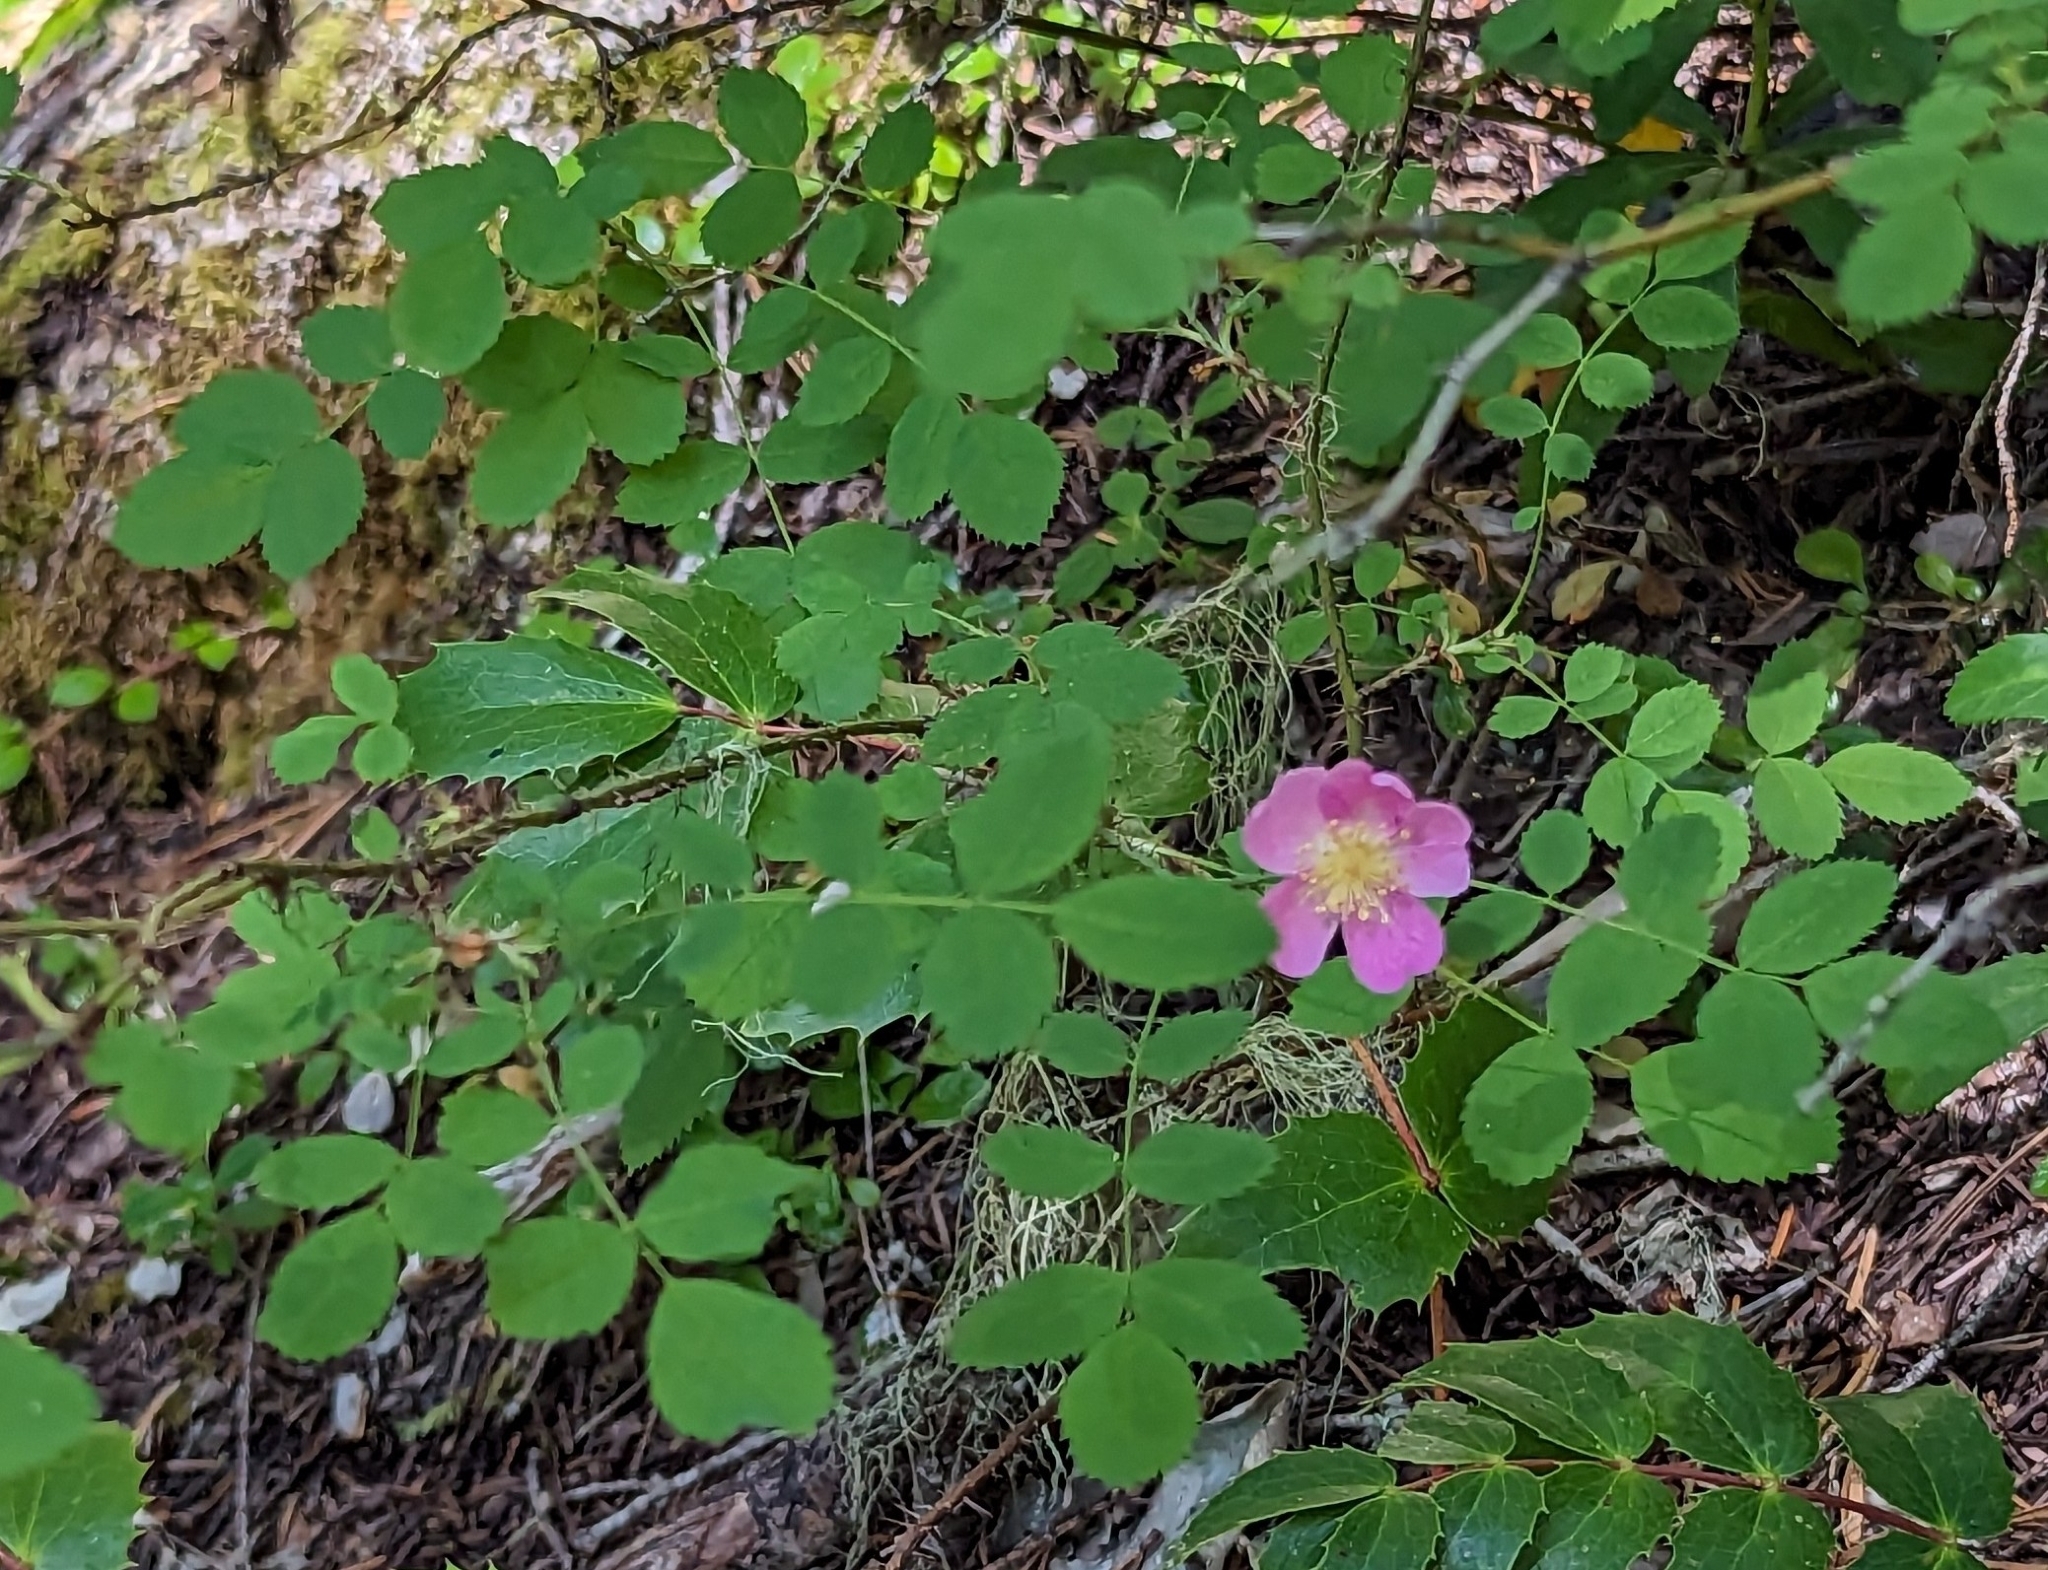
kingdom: Plantae
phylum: Tracheophyta
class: Magnoliopsida
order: Rosales
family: Rosaceae
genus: Rosa
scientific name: Rosa gymnocarpa
